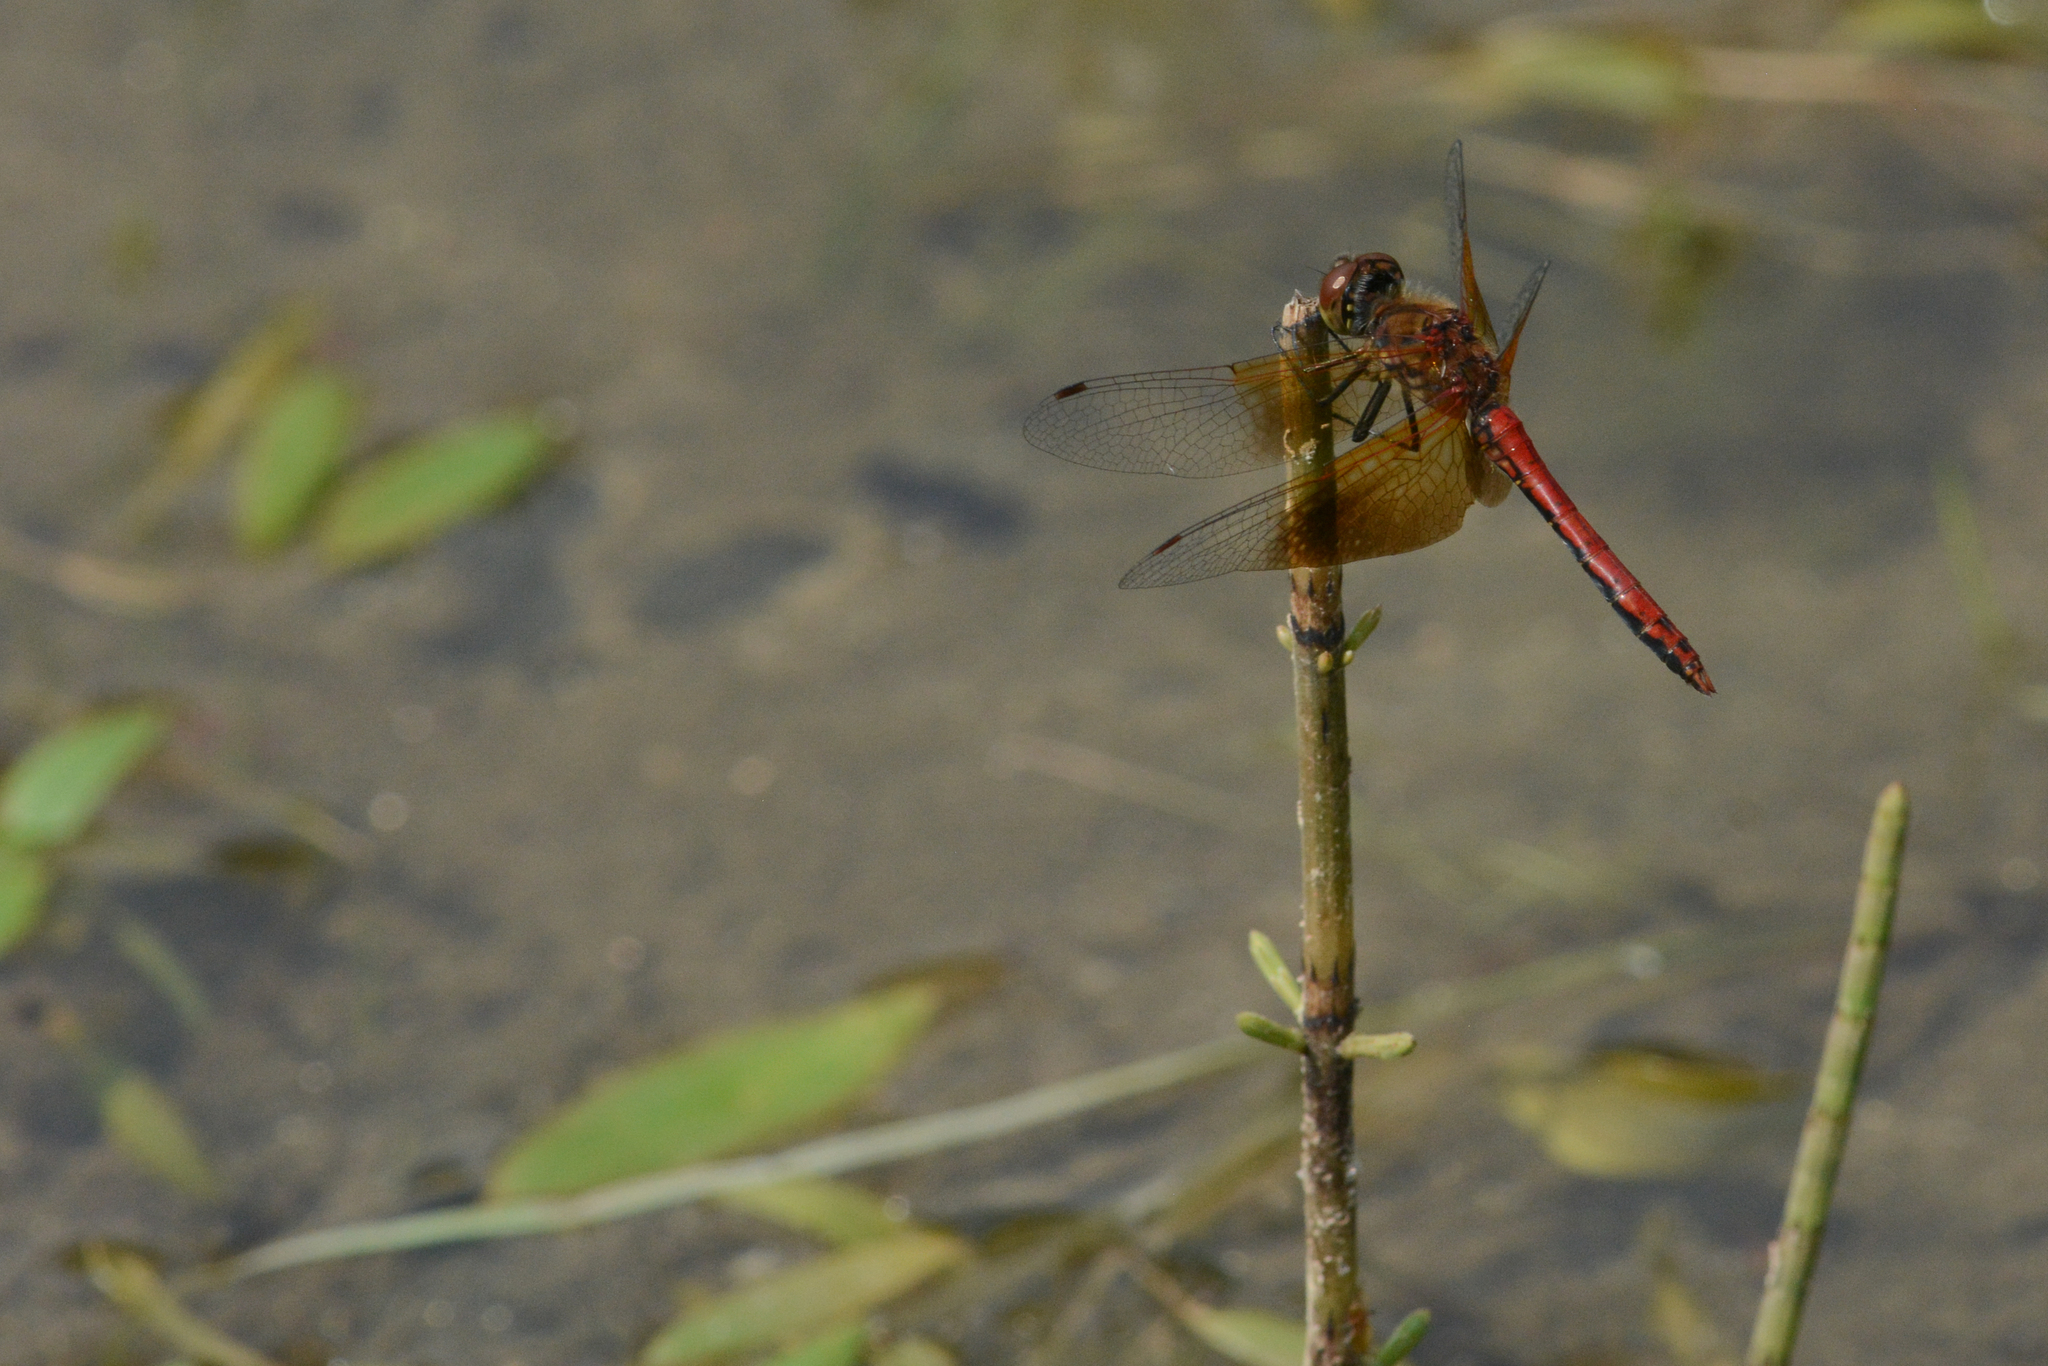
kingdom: Animalia
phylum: Arthropoda
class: Insecta
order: Odonata
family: Libellulidae
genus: Sympetrum
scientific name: Sympetrum semicinctum
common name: Band-winged meadowhawk
